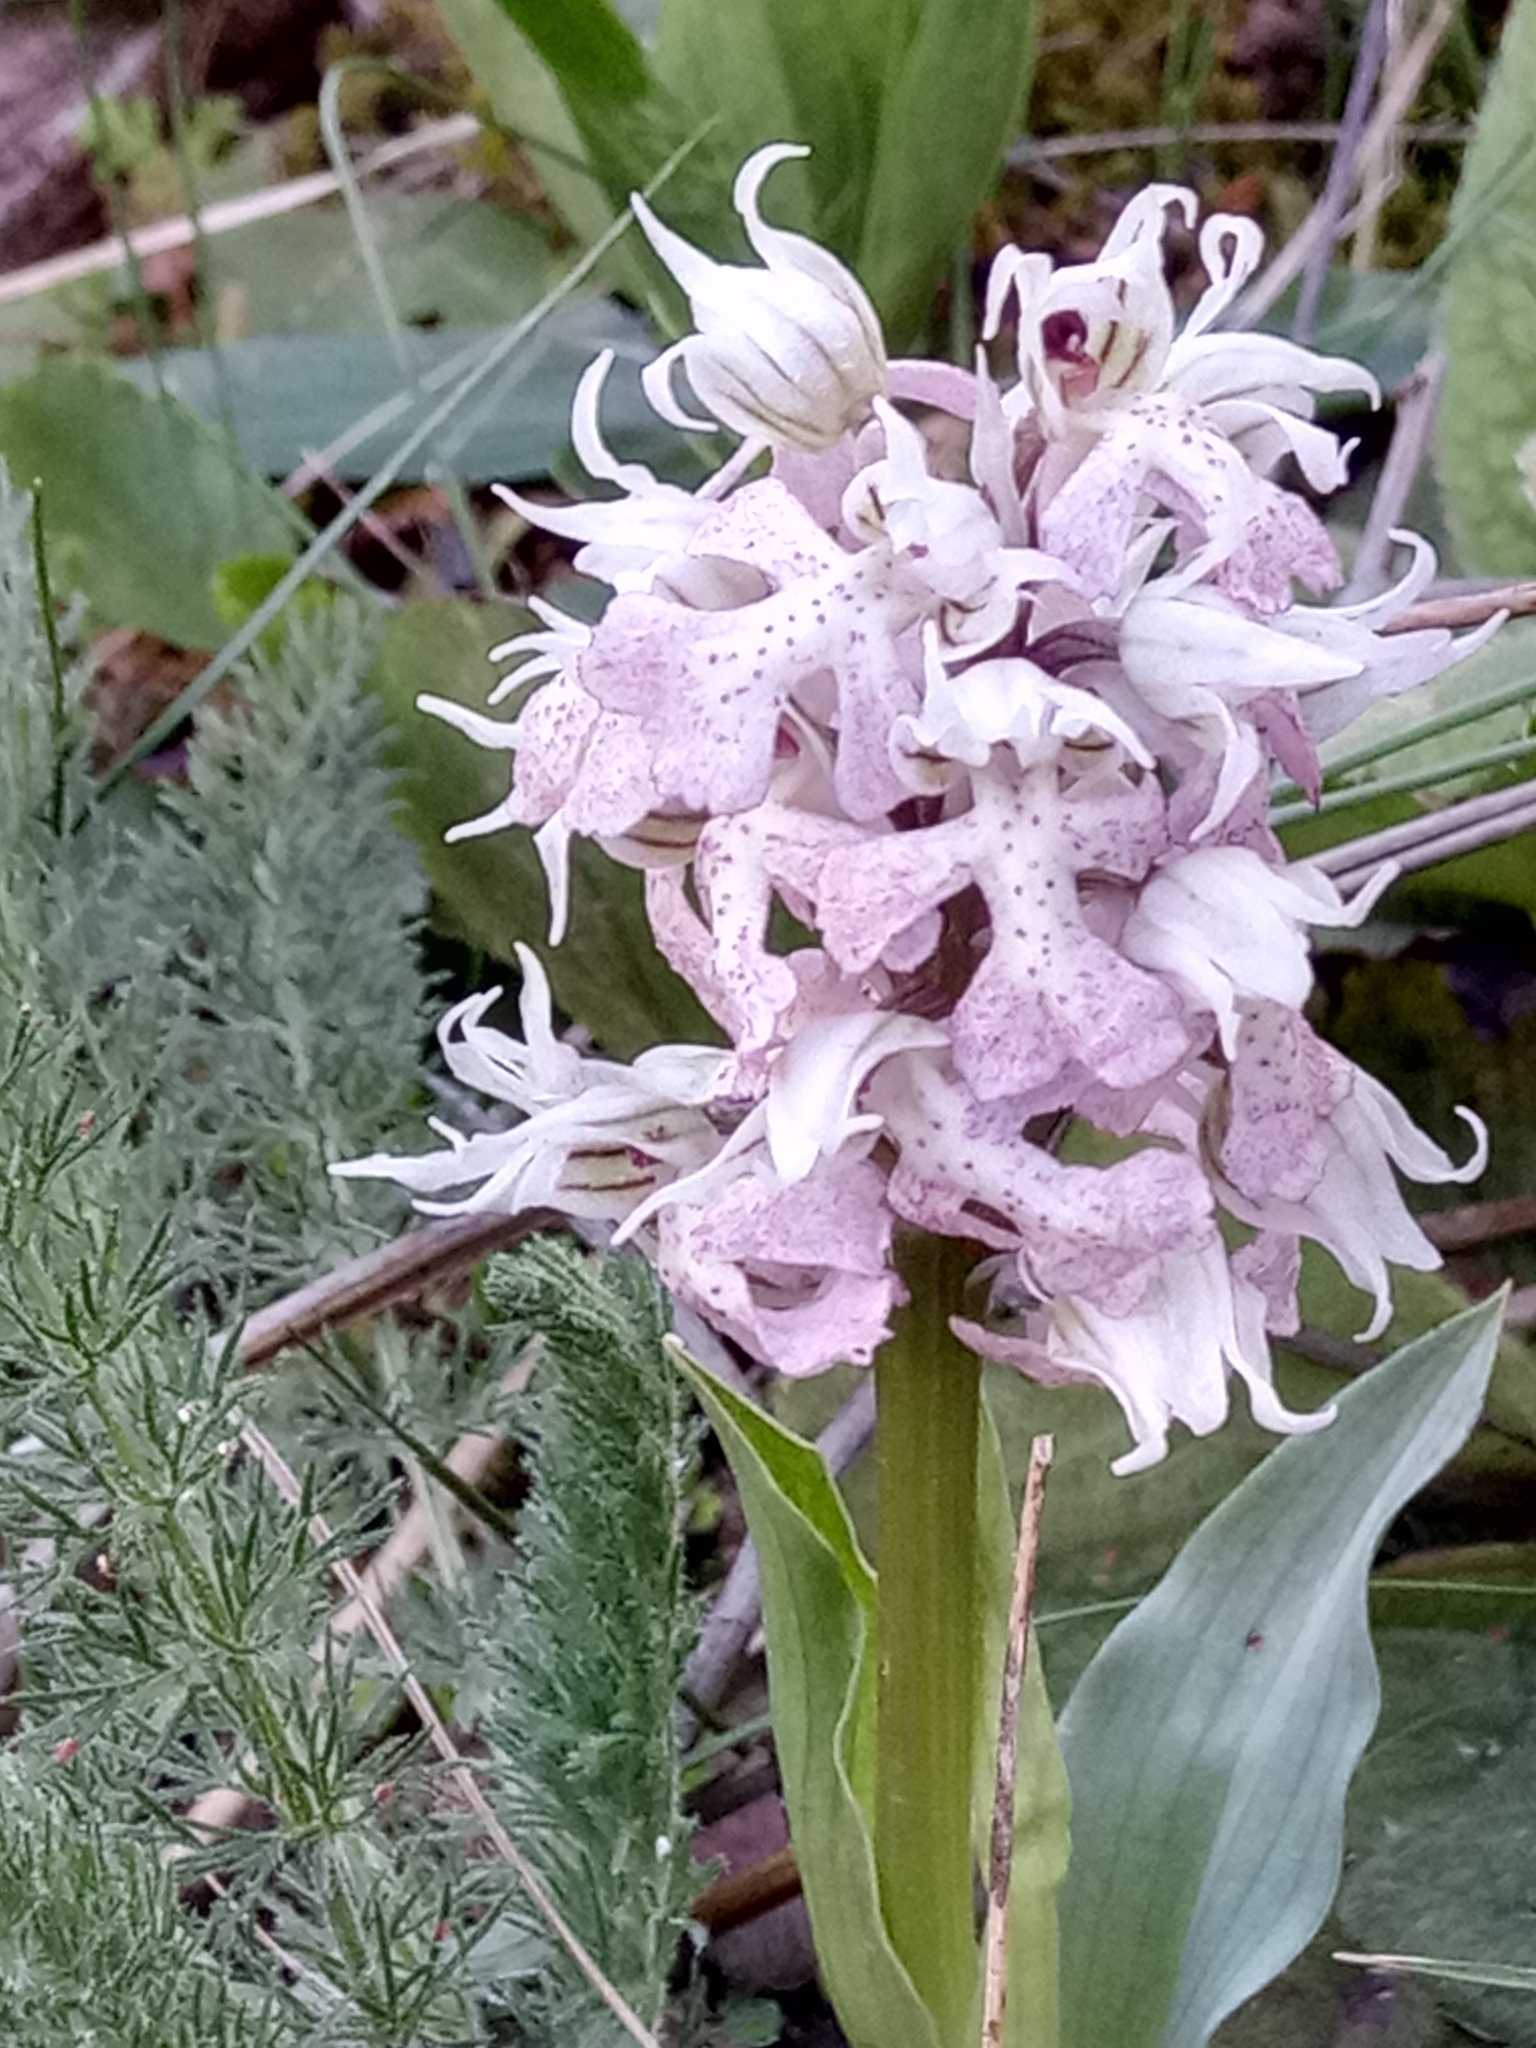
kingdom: Plantae
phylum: Tracheophyta
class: Liliopsida
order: Asparagales
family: Orchidaceae
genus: Neotinea
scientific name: Neotinea lactea
